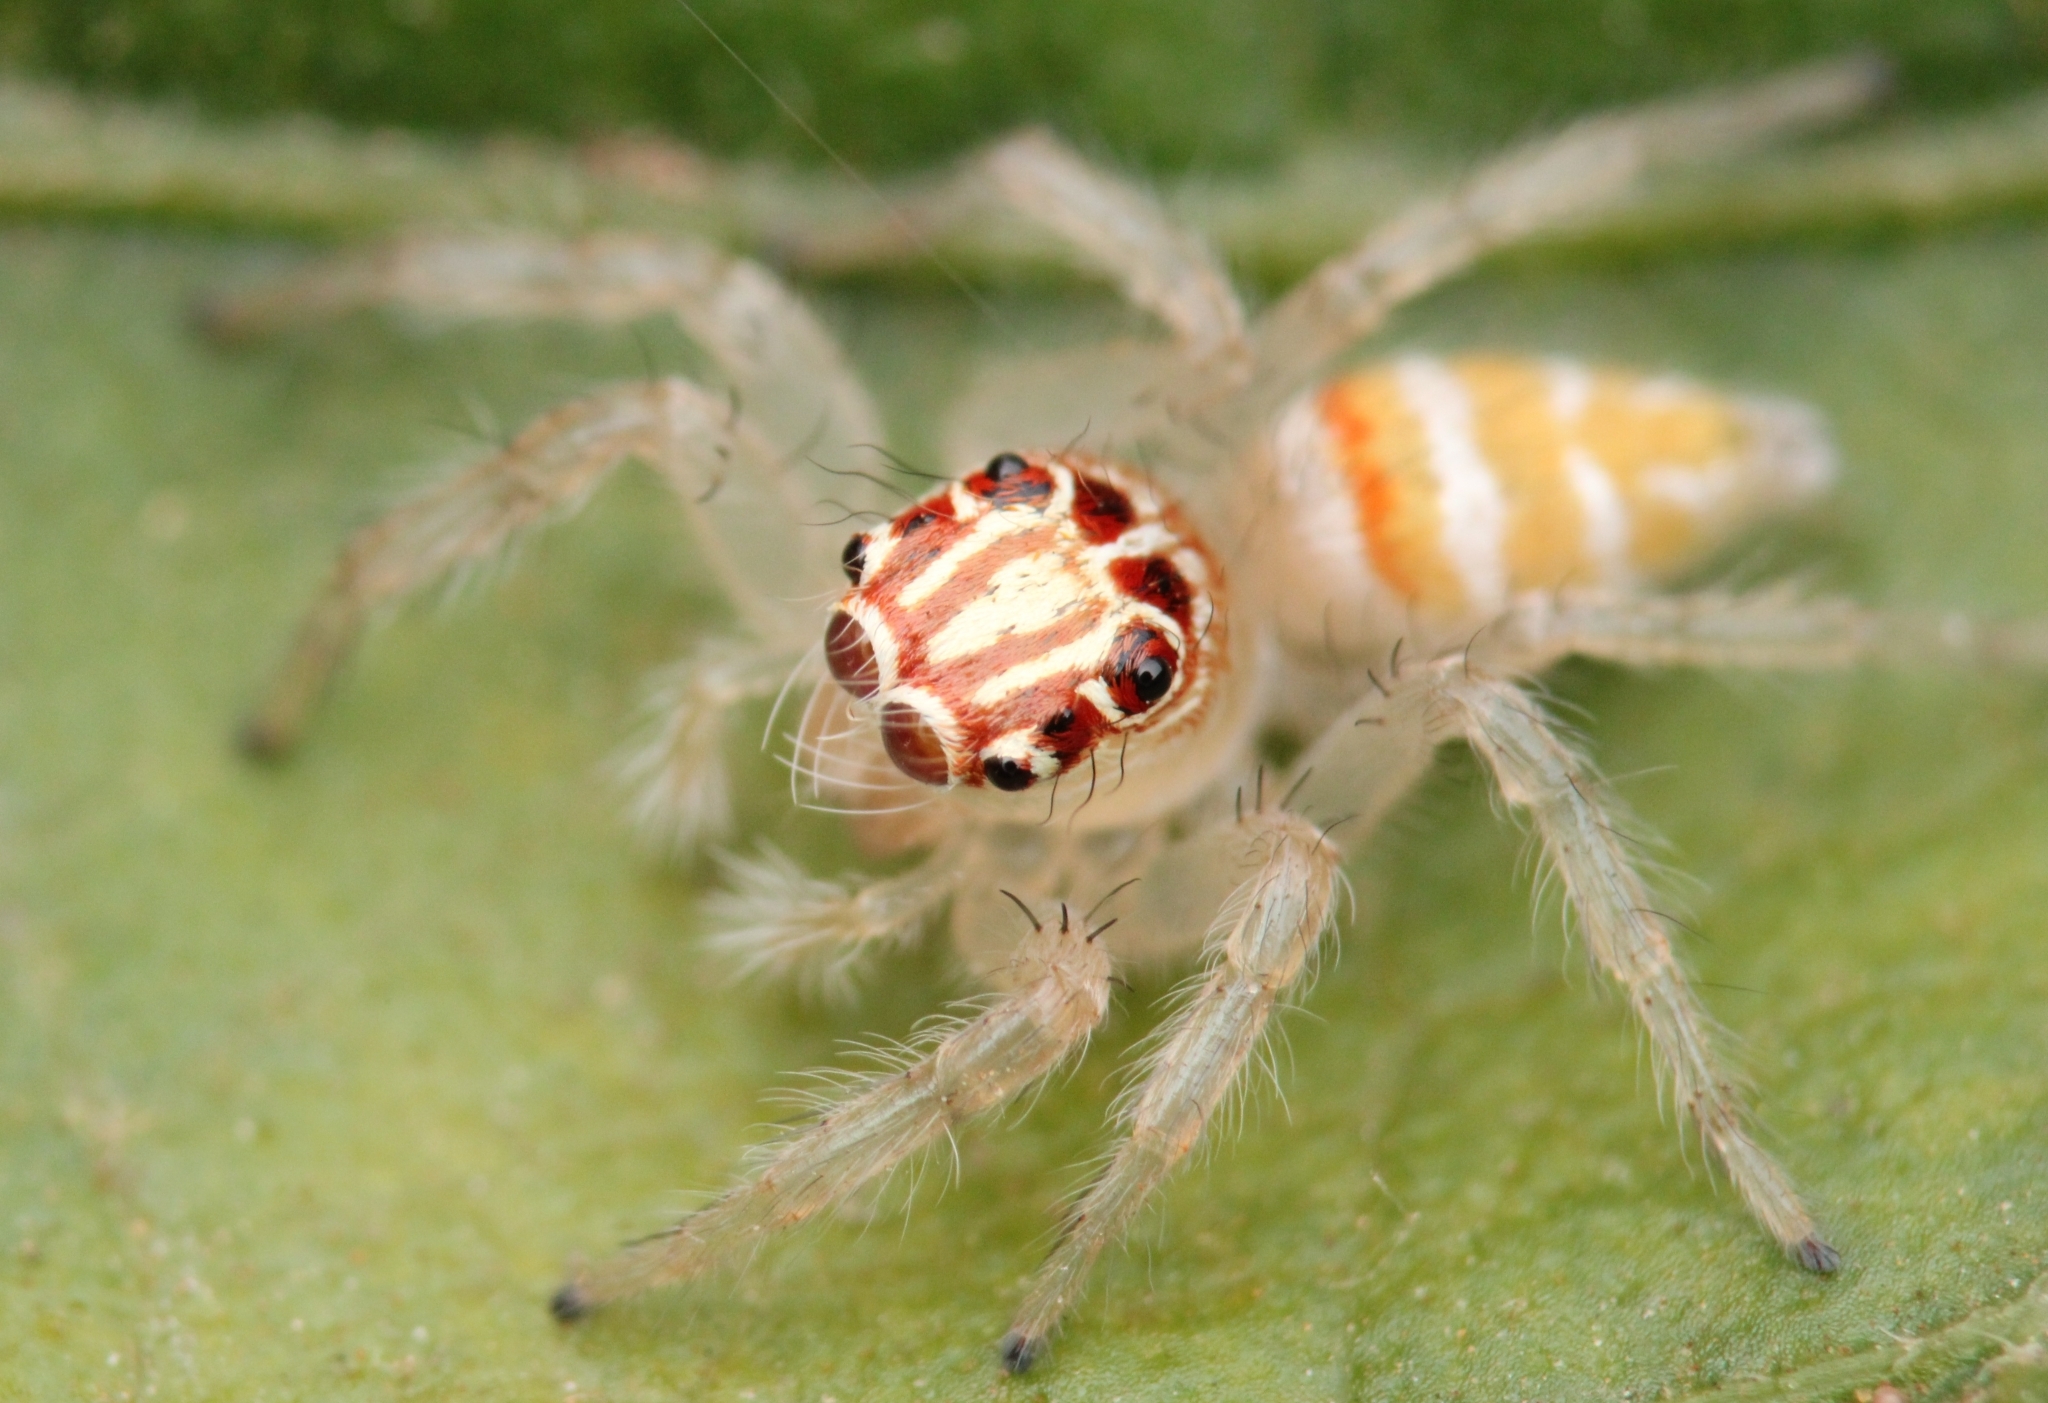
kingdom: Animalia
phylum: Arthropoda
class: Arachnida
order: Araneae
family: Salticidae
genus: Brancus
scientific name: Brancus mustelus
